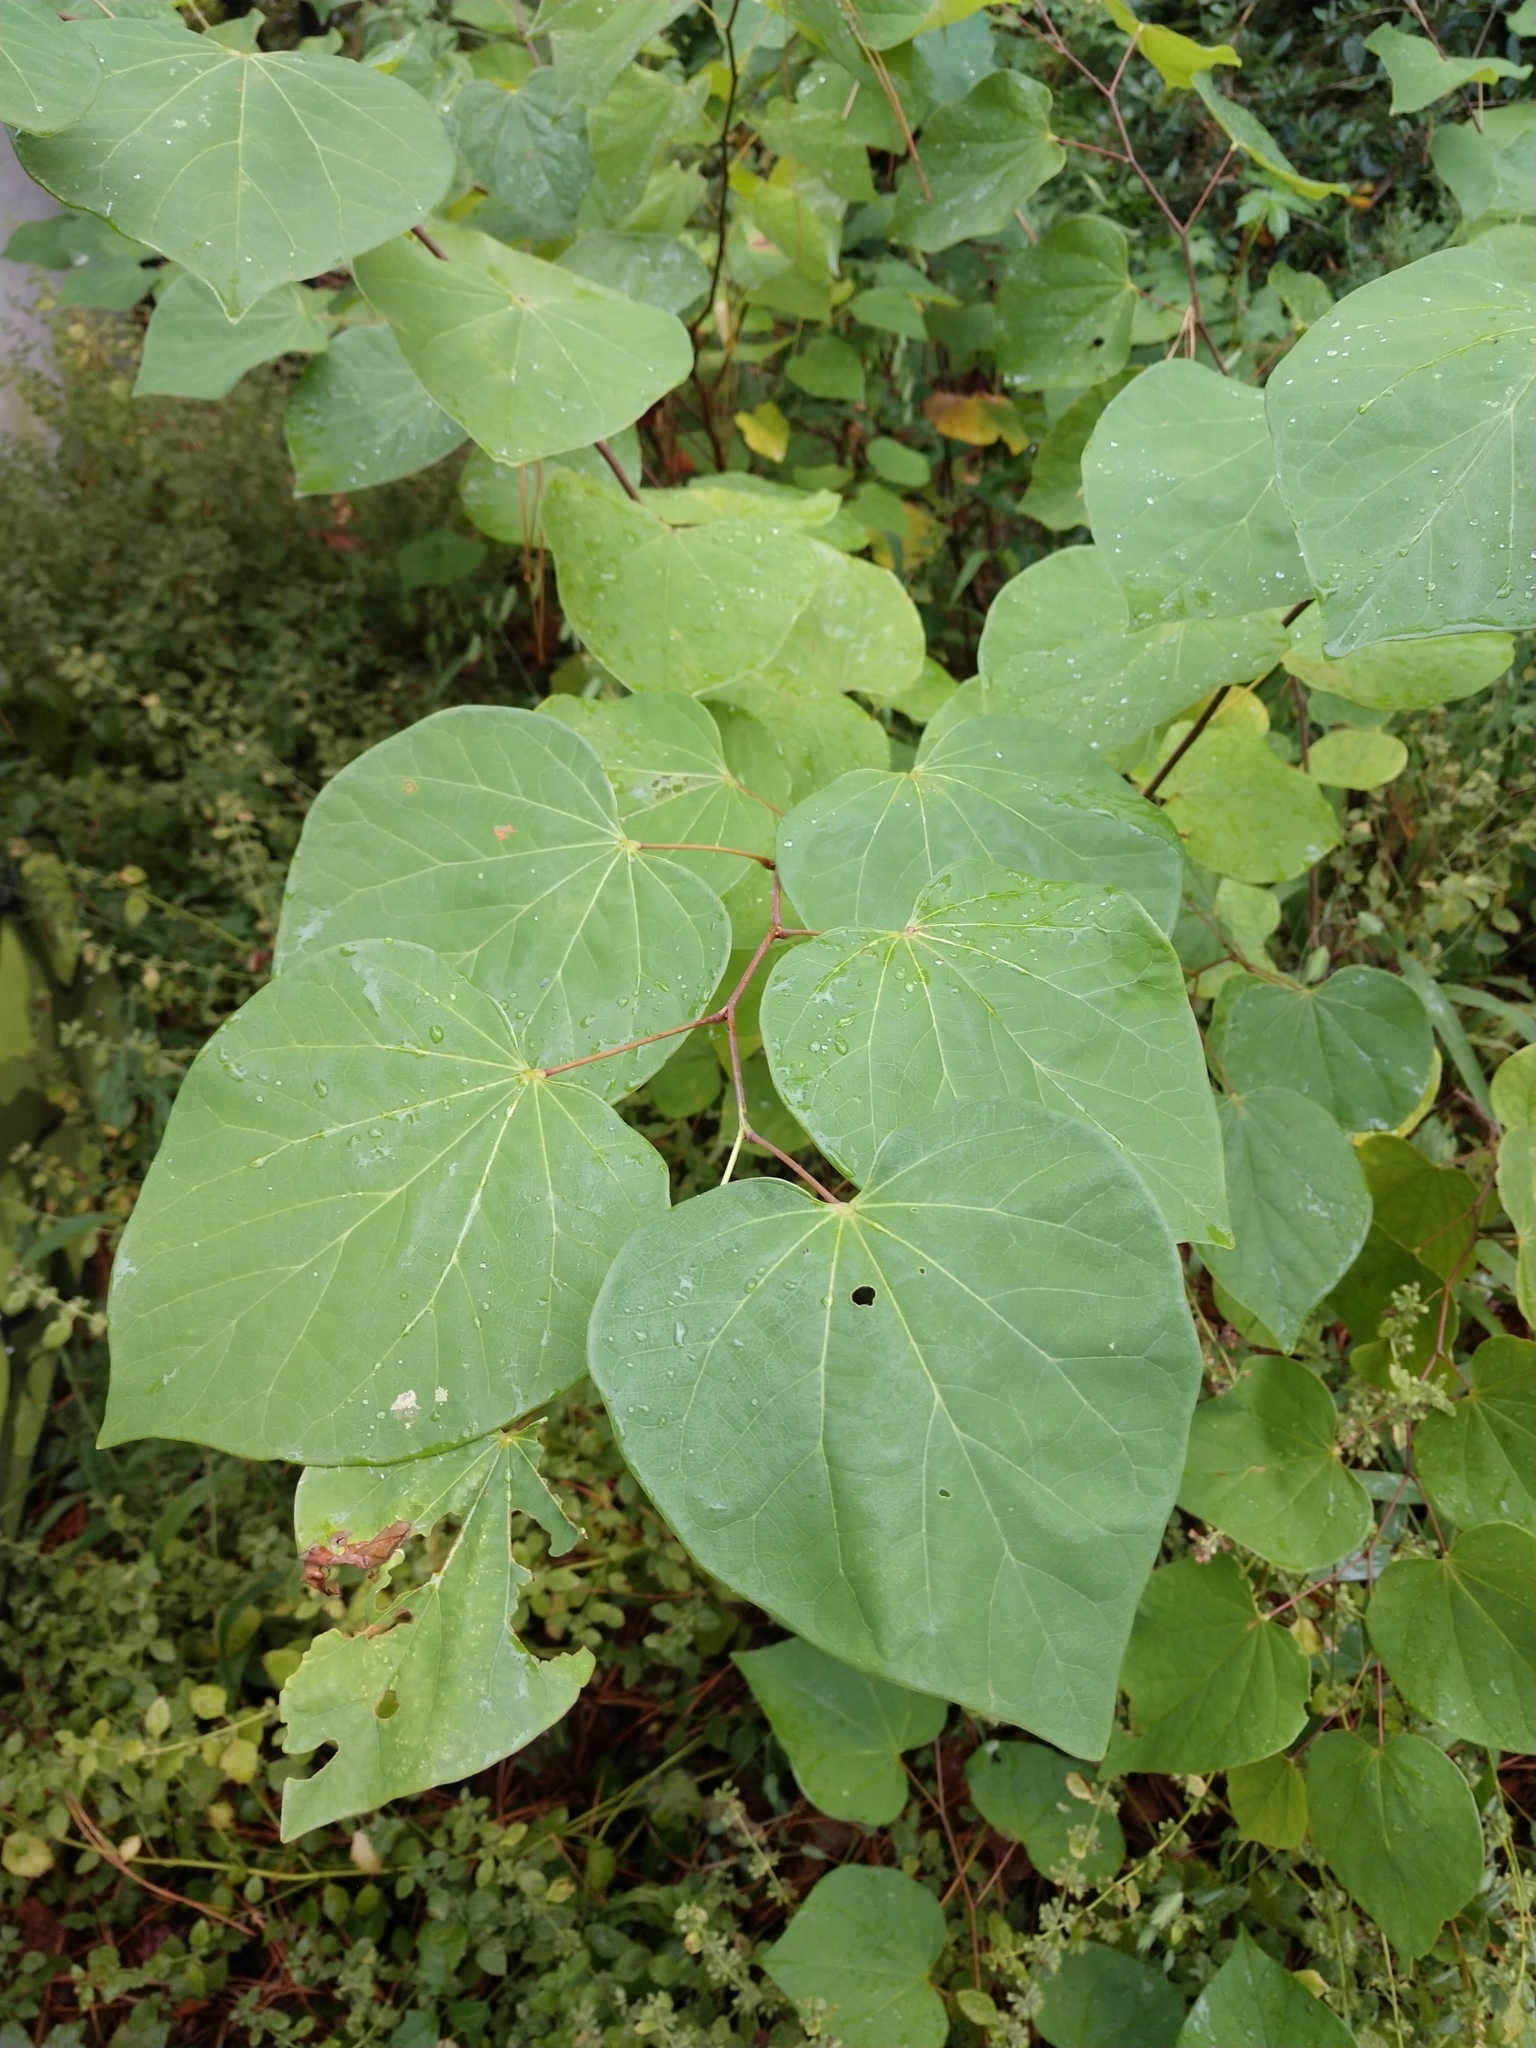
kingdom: Plantae
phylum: Tracheophyta
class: Magnoliopsida
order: Fabales
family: Fabaceae
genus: Cercis
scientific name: Cercis canadensis
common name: Eastern redbud
